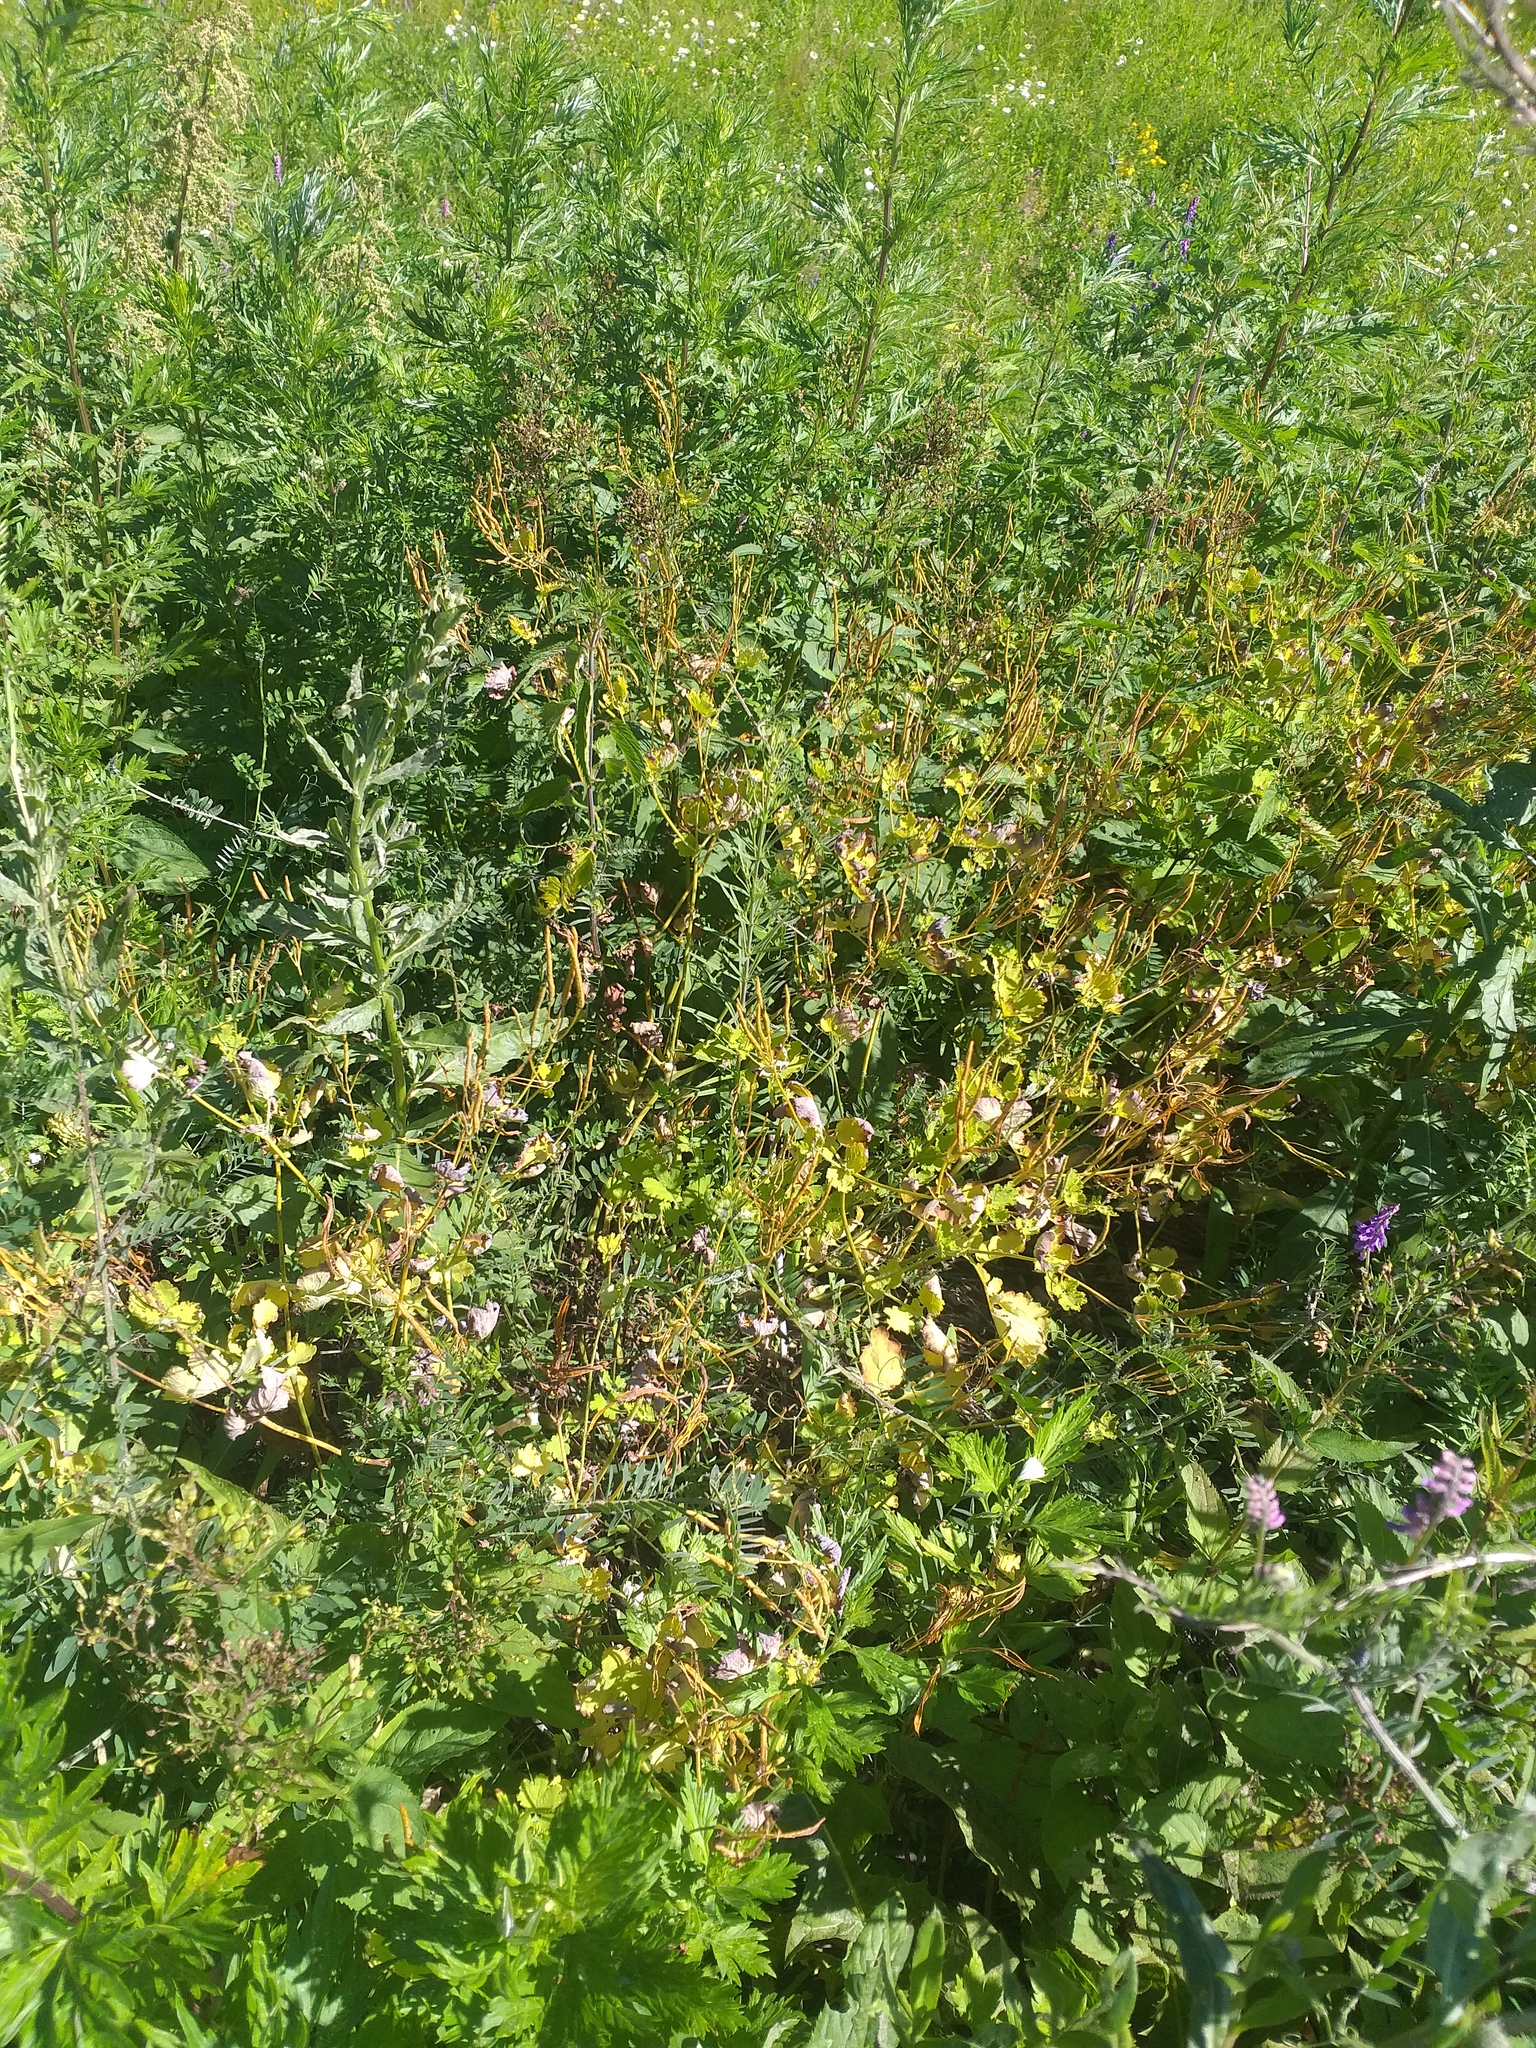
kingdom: Plantae
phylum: Tracheophyta
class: Magnoliopsida
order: Ranunculales
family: Papaveraceae
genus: Chelidonium
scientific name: Chelidonium majus
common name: Greater celandine
